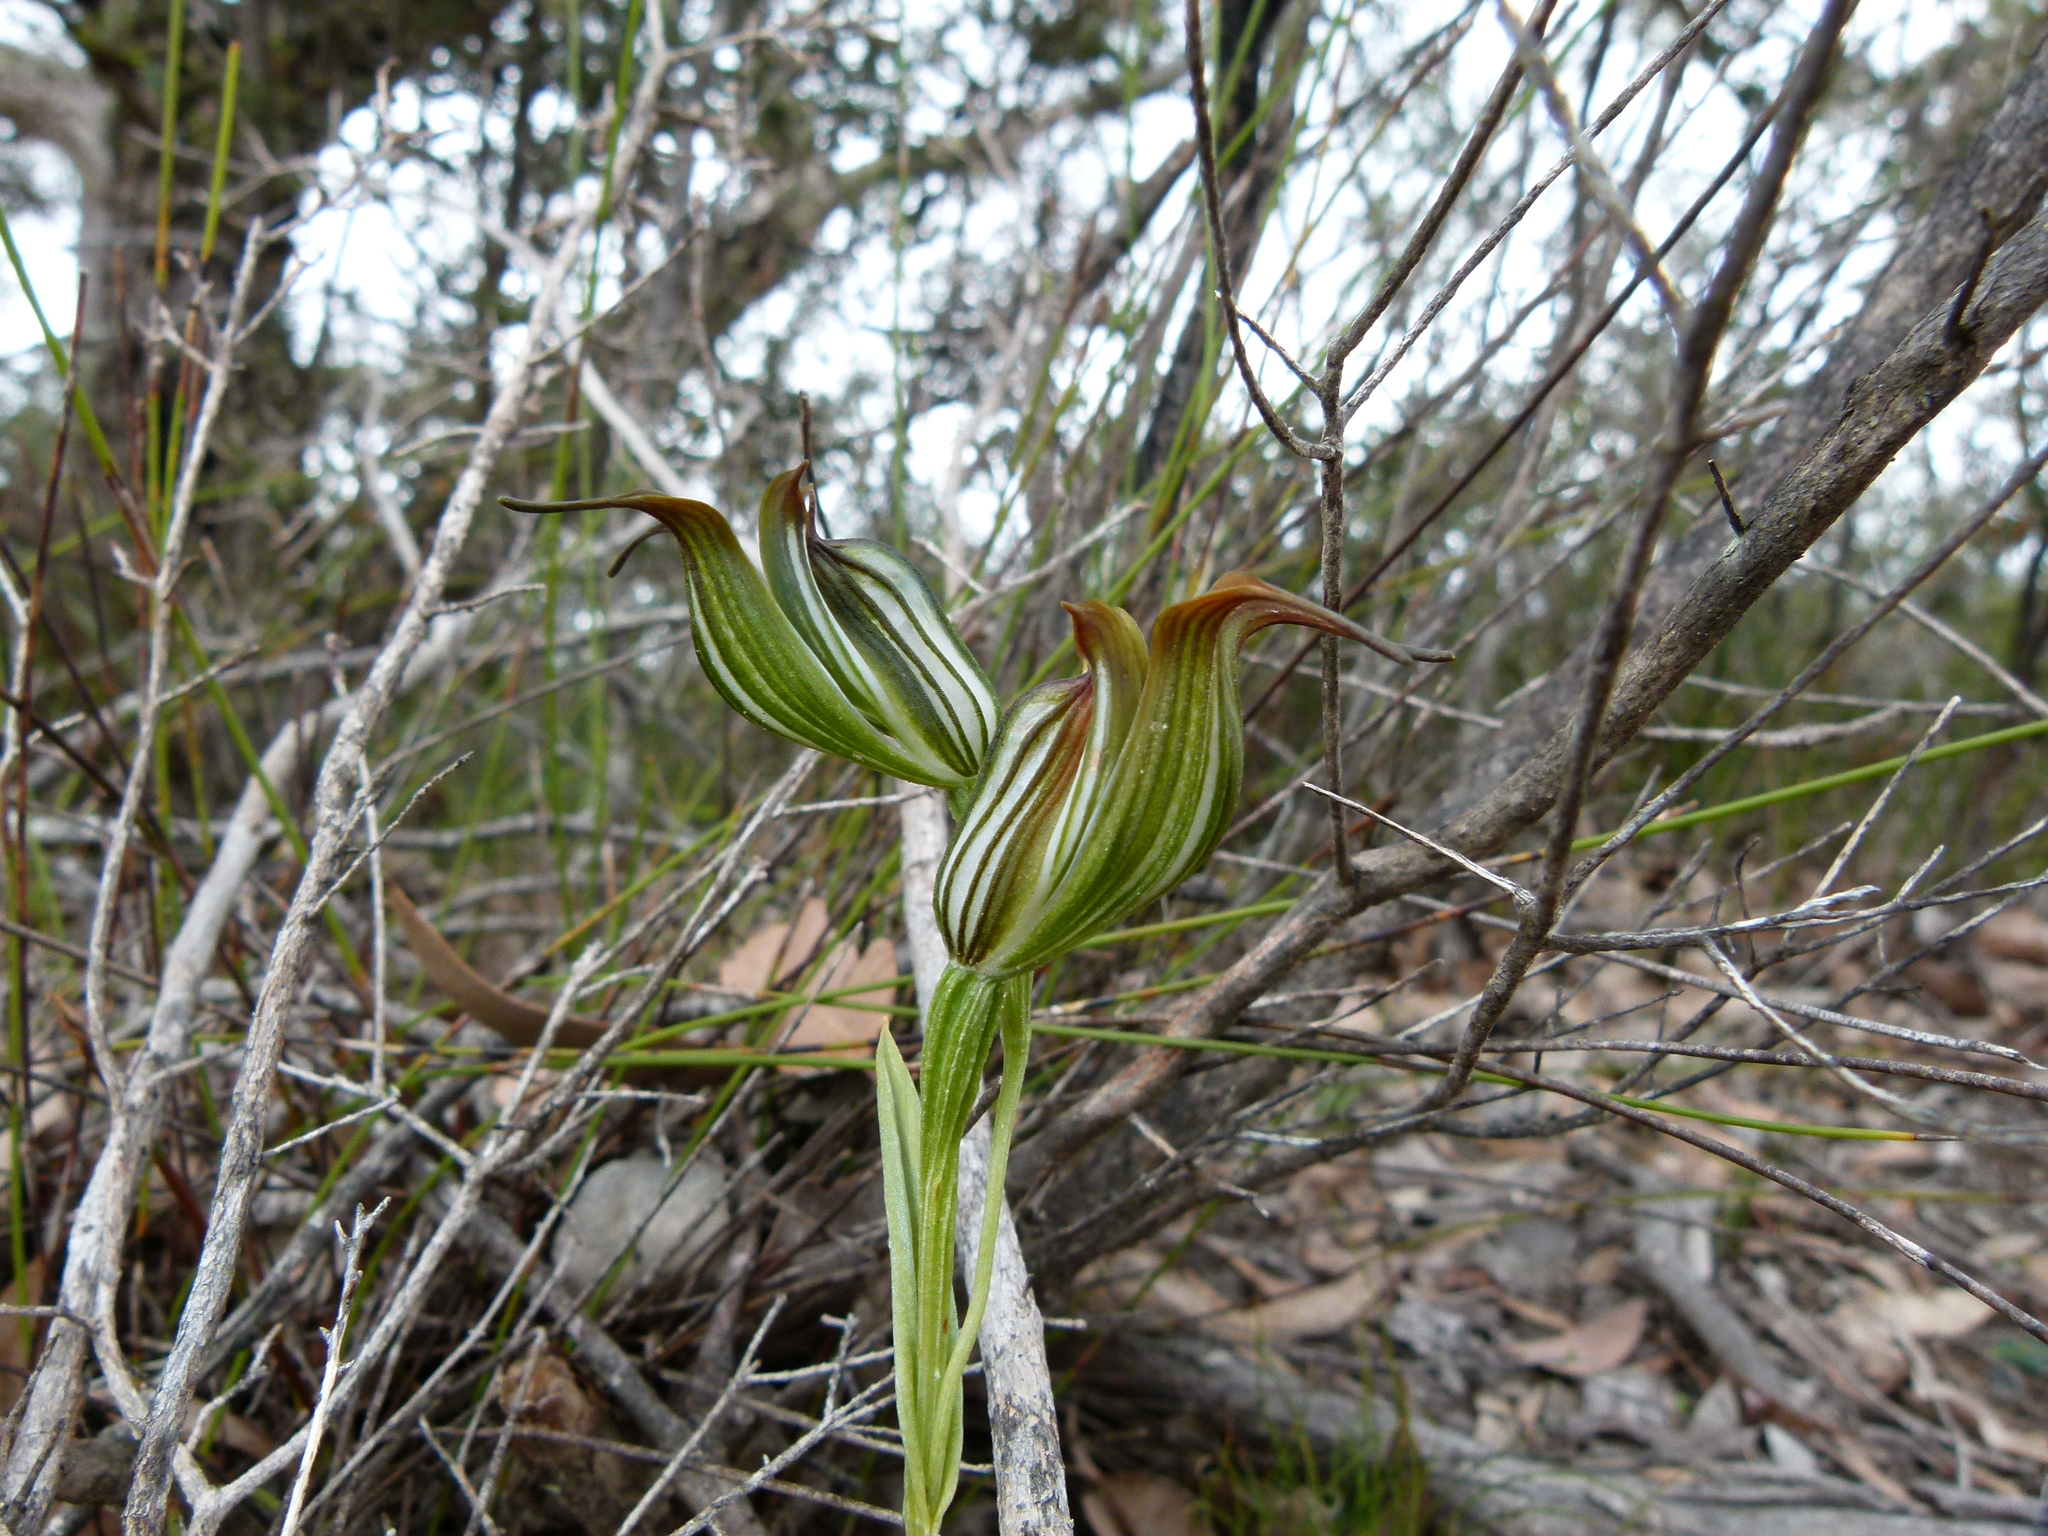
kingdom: Plantae
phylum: Tracheophyta
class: Liliopsida
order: Asparagales
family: Orchidaceae
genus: Pterostylis
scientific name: Pterostylis recurva
